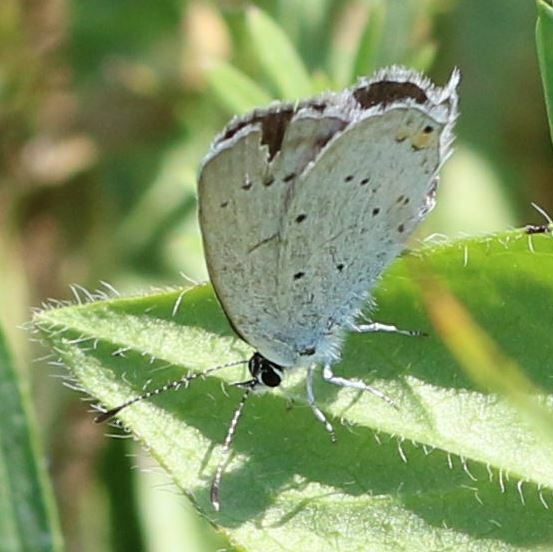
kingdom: Animalia
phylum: Arthropoda
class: Insecta
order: Lepidoptera
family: Lycaenidae
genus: Elkalyce
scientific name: Elkalyce argiades
